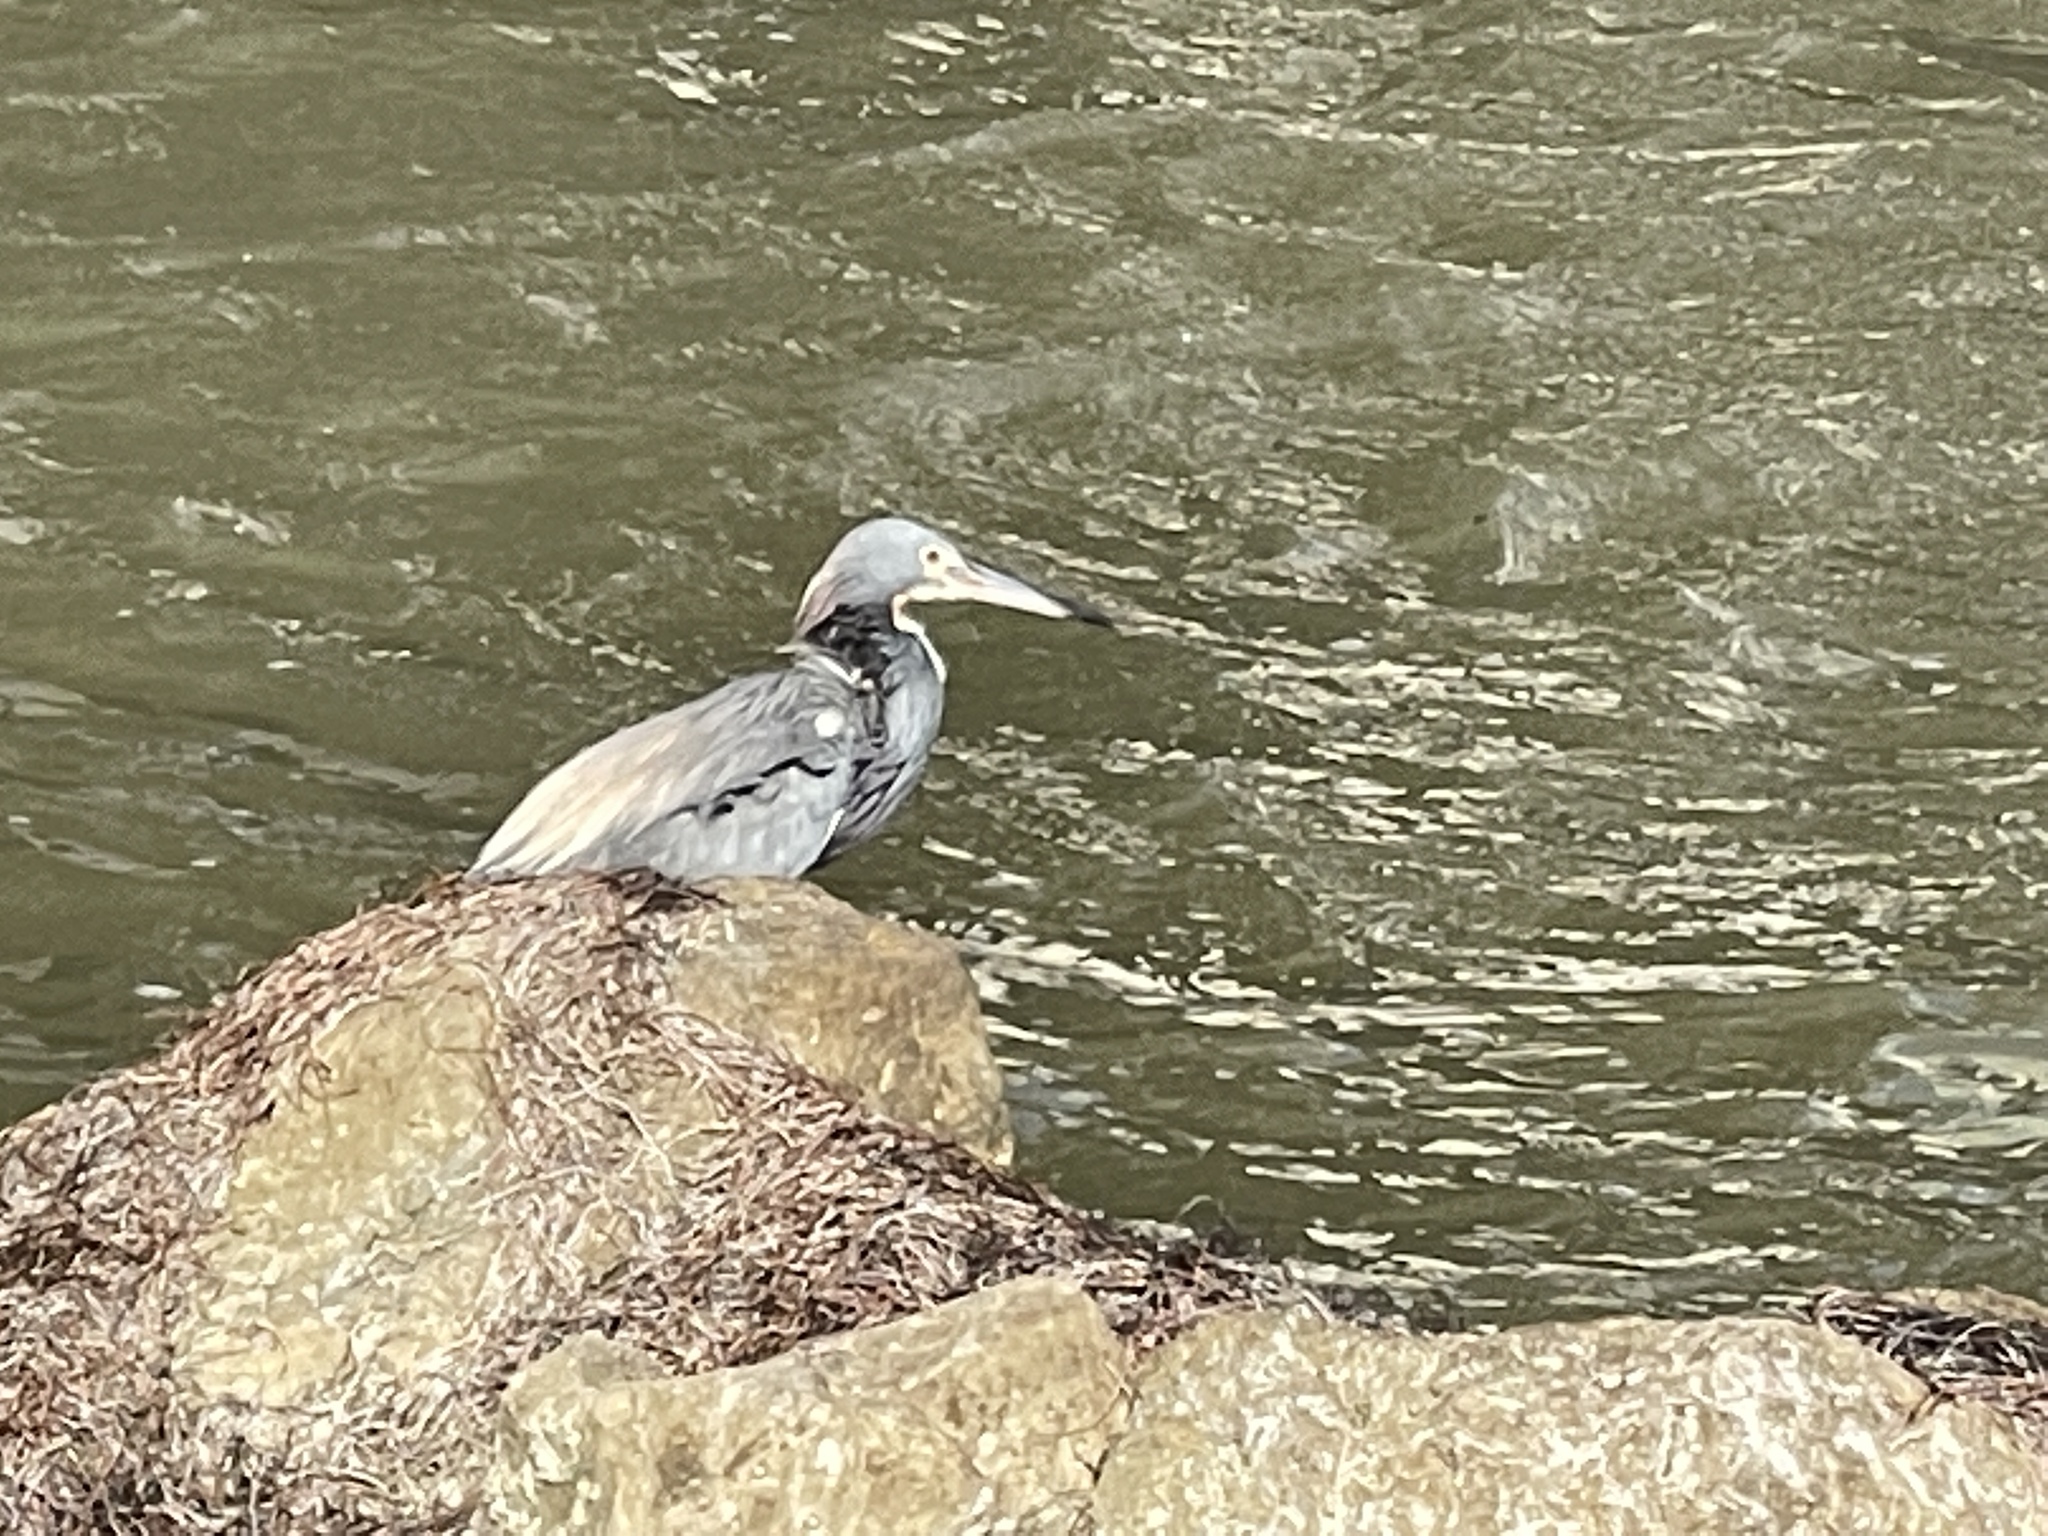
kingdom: Animalia
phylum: Chordata
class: Aves
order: Pelecaniformes
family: Ardeidae
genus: Egretta
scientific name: Egretta tricolor
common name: Tricolored heron
